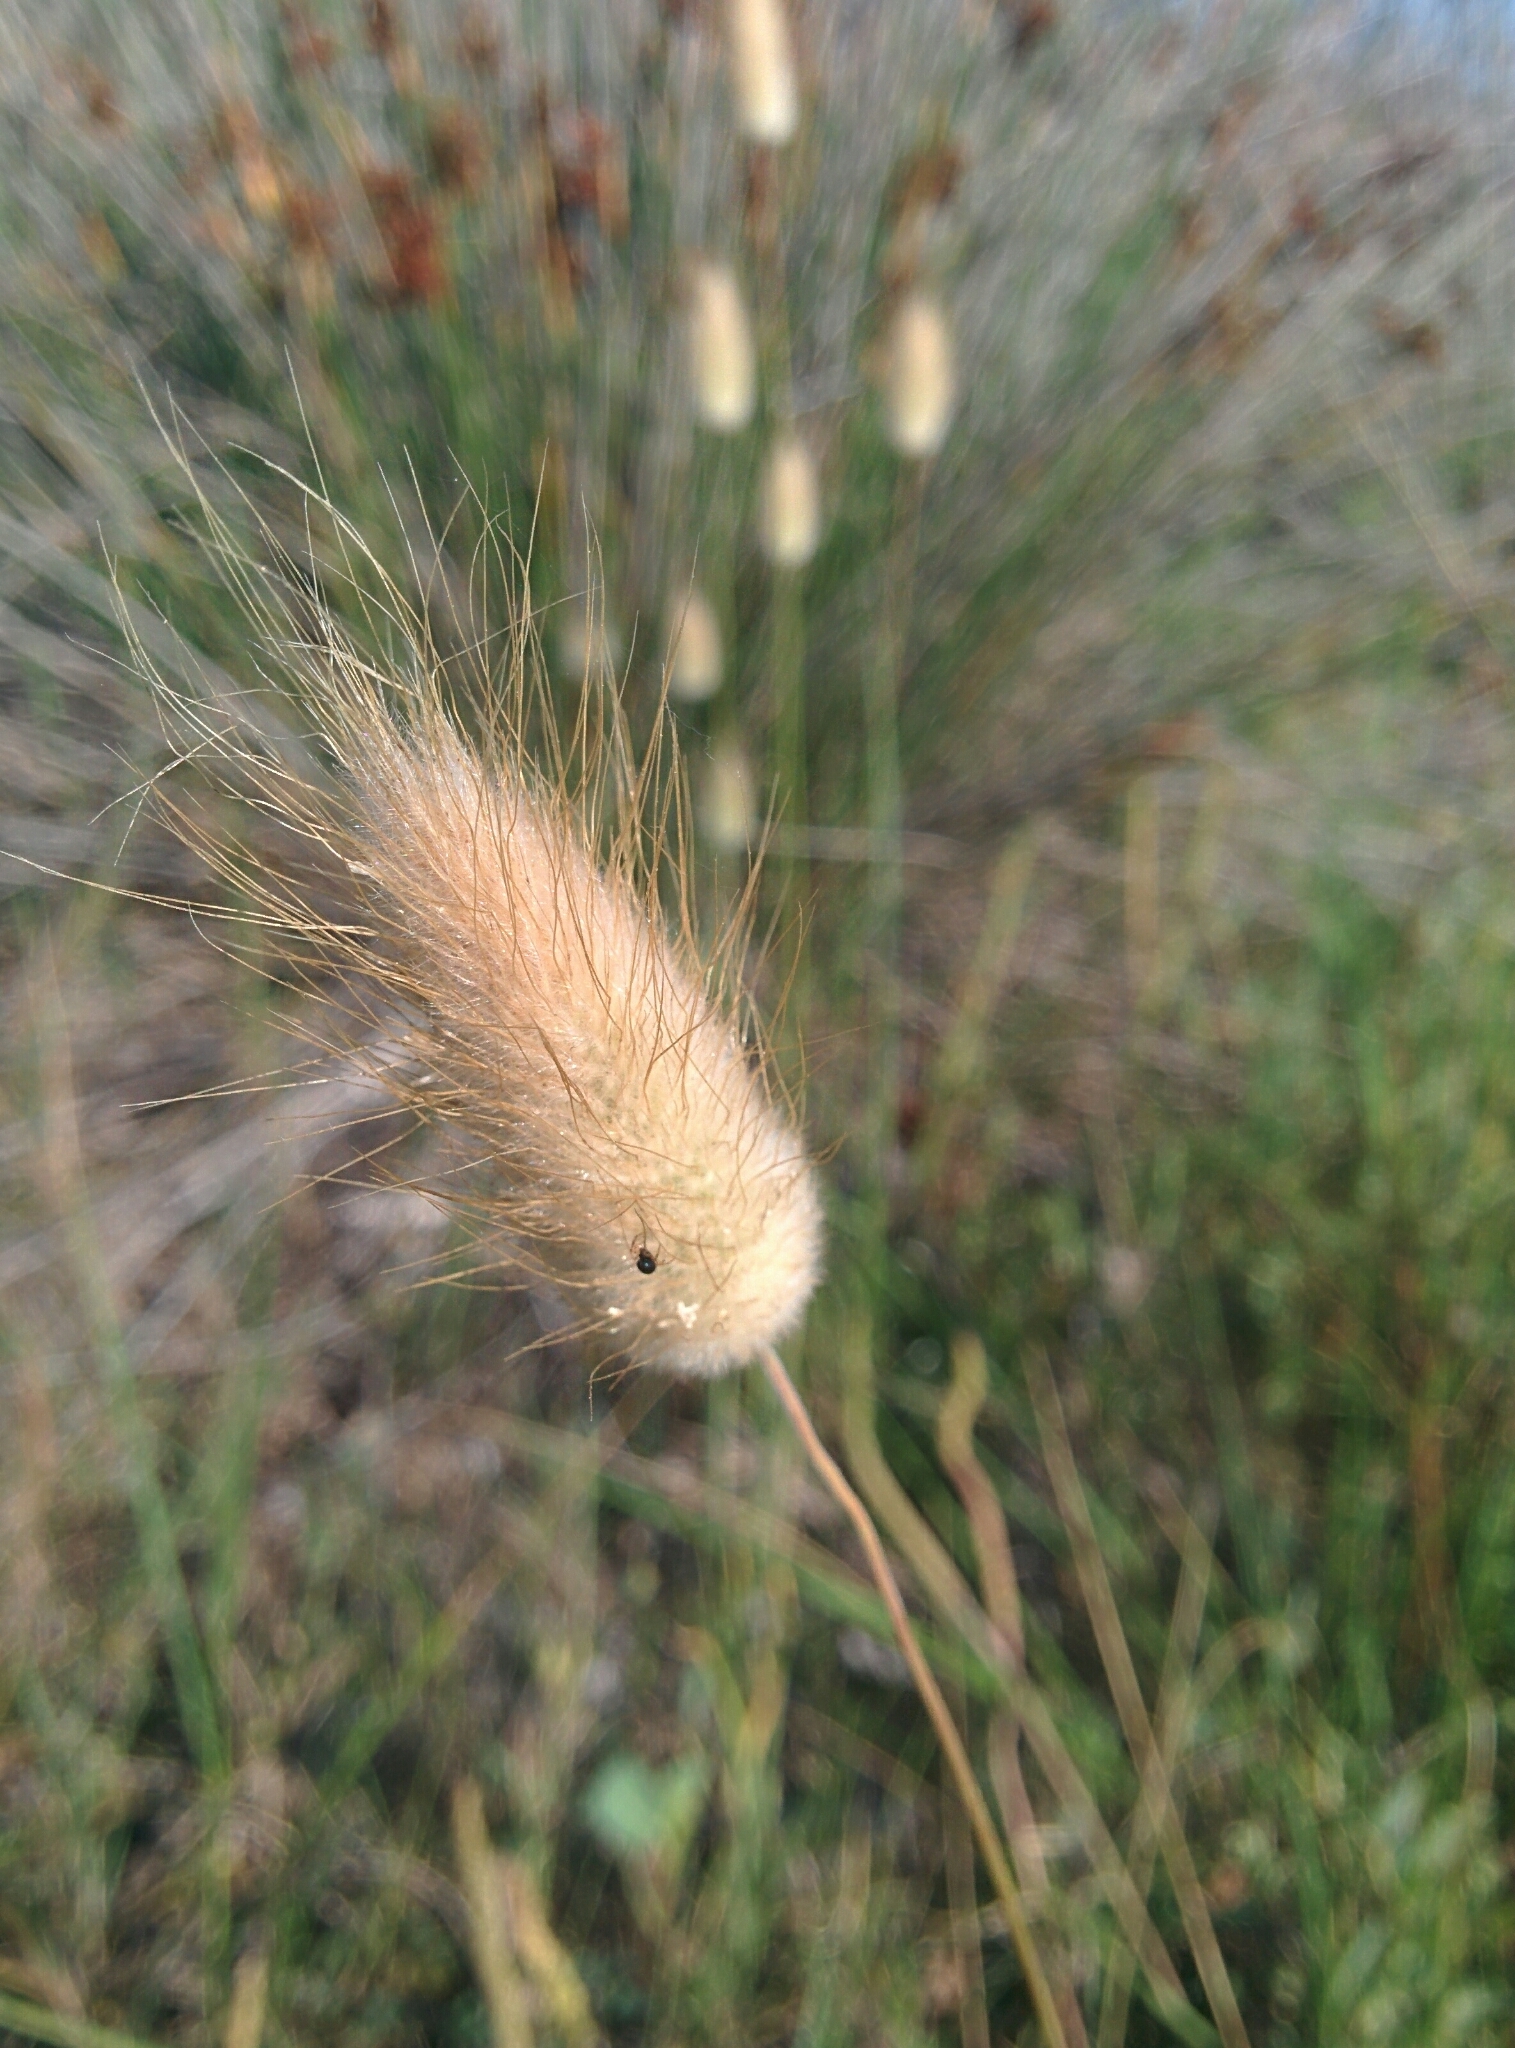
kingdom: Plantae
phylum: Tracheophyta
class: Liliopsida
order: Poales
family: Poaceae
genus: Lagurus
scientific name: Lagurus ovatus
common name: Hare's-tail
